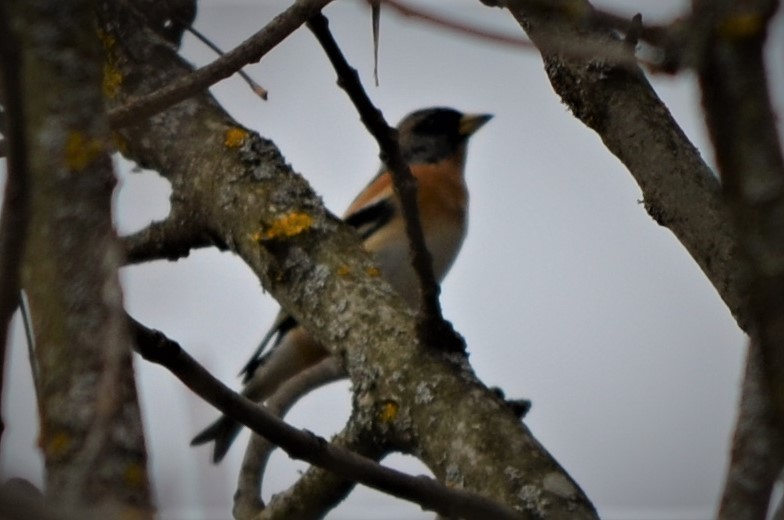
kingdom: Animalia
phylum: Chordata
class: Aves
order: Passeriformes
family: Fringillidae
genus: Fringilla
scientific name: Fringilla montifringilla
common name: Brambling
